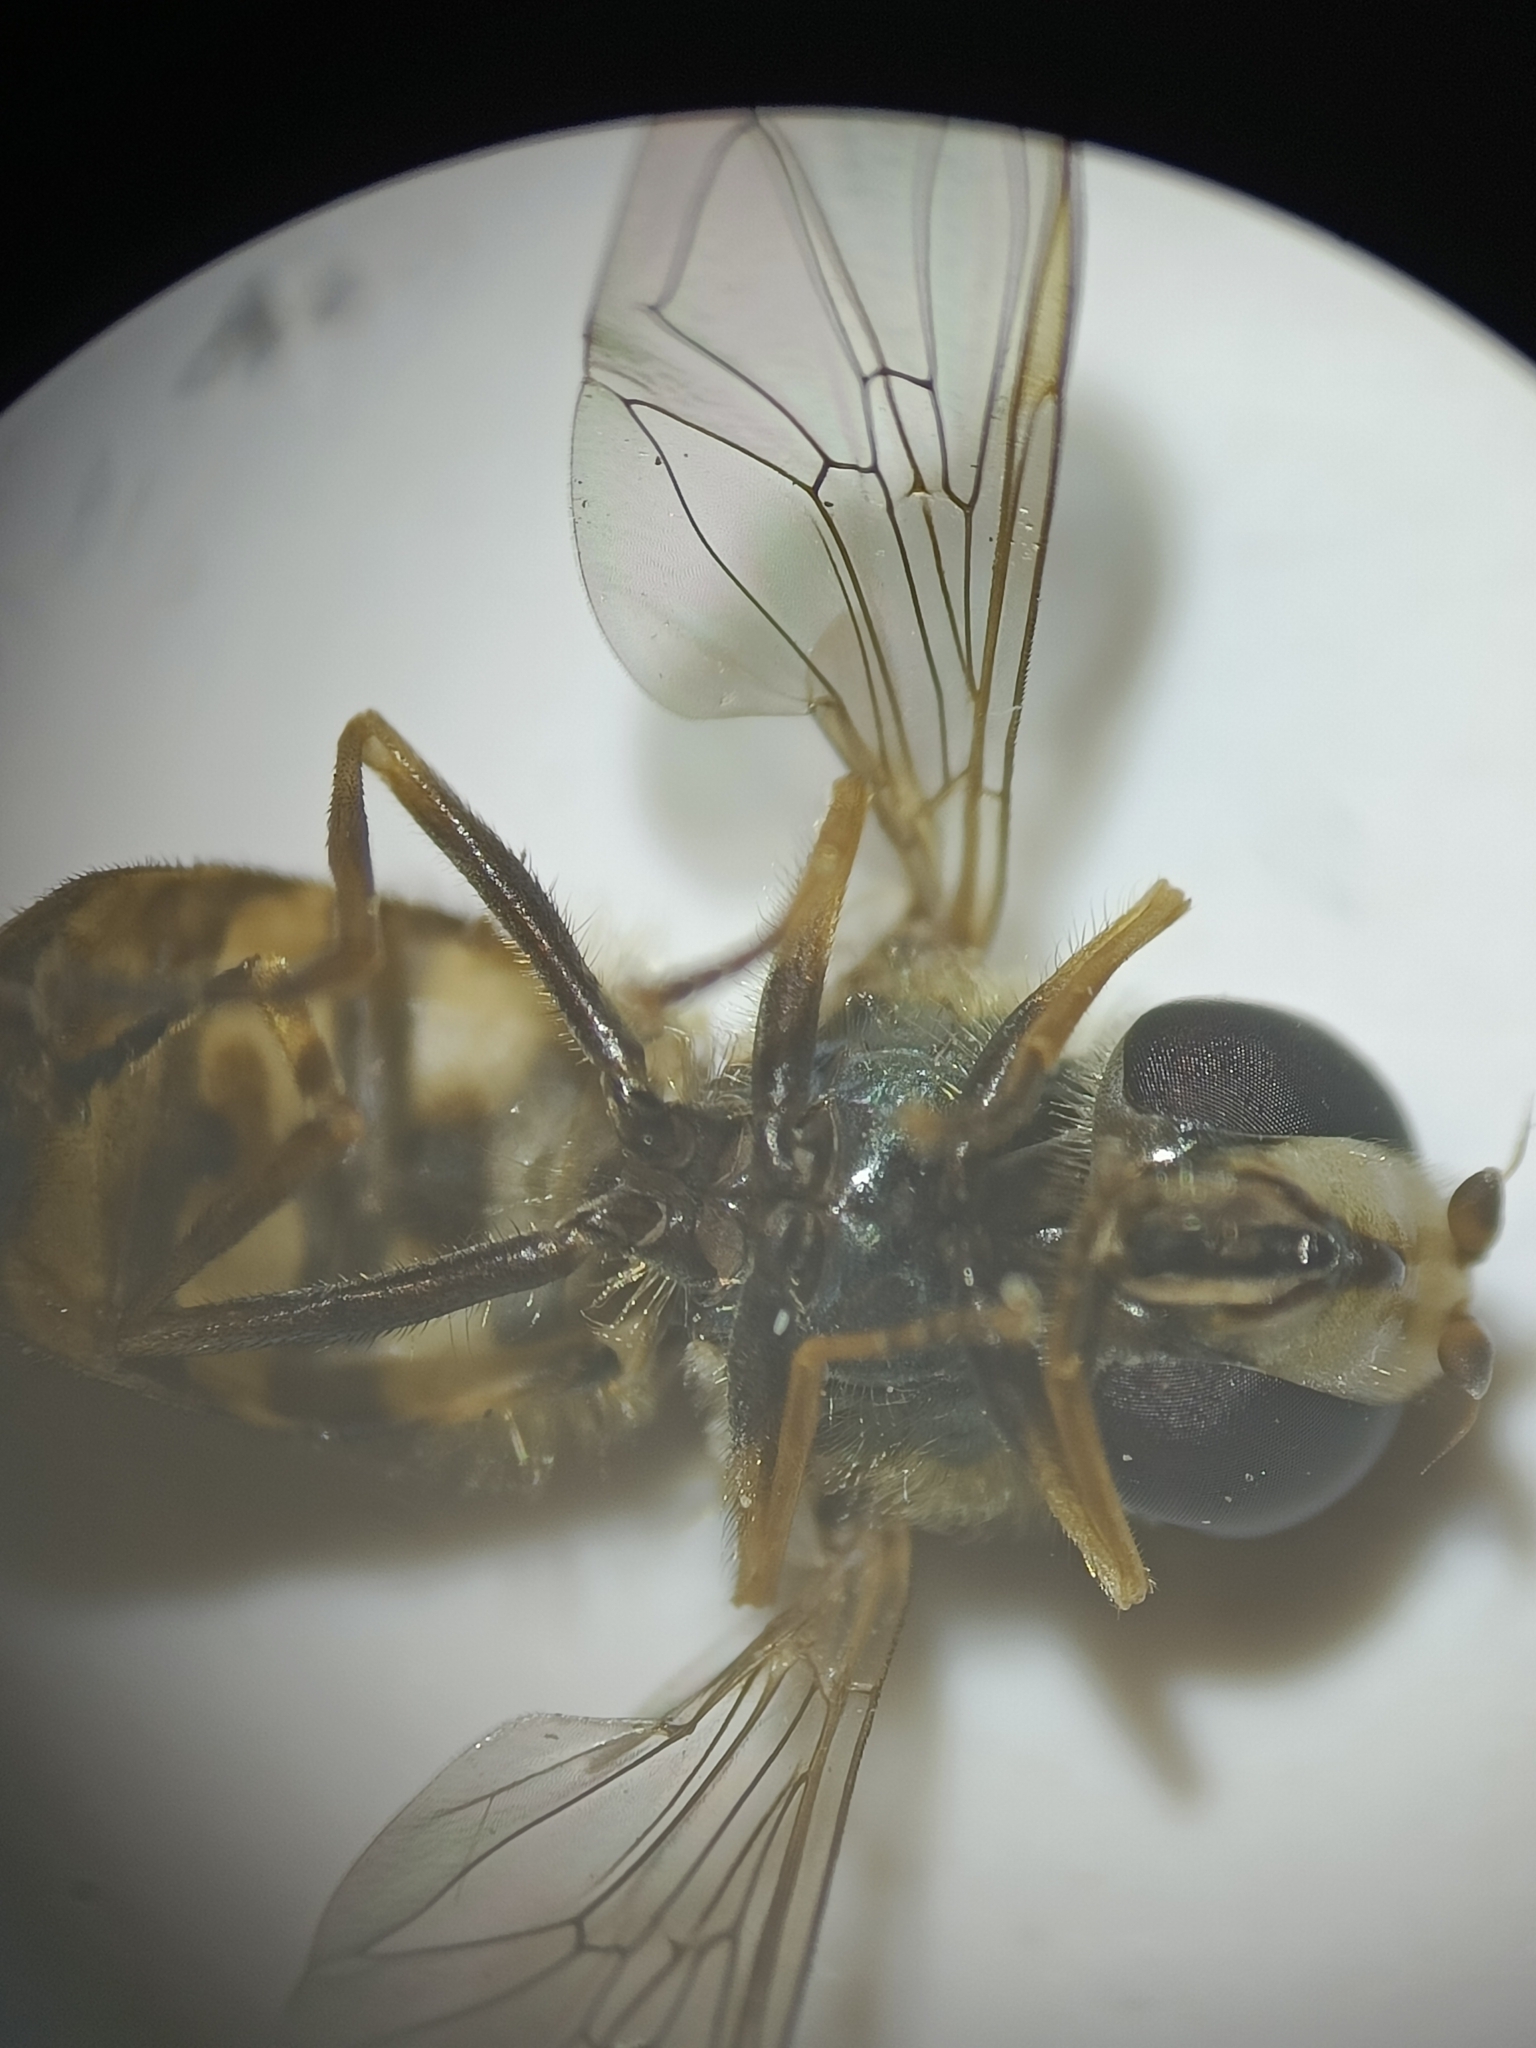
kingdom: Animalia
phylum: Arthropoda
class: Insecta
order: Diptera
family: Syrphidae
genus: Eupeodes
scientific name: Eupeodes corollae
